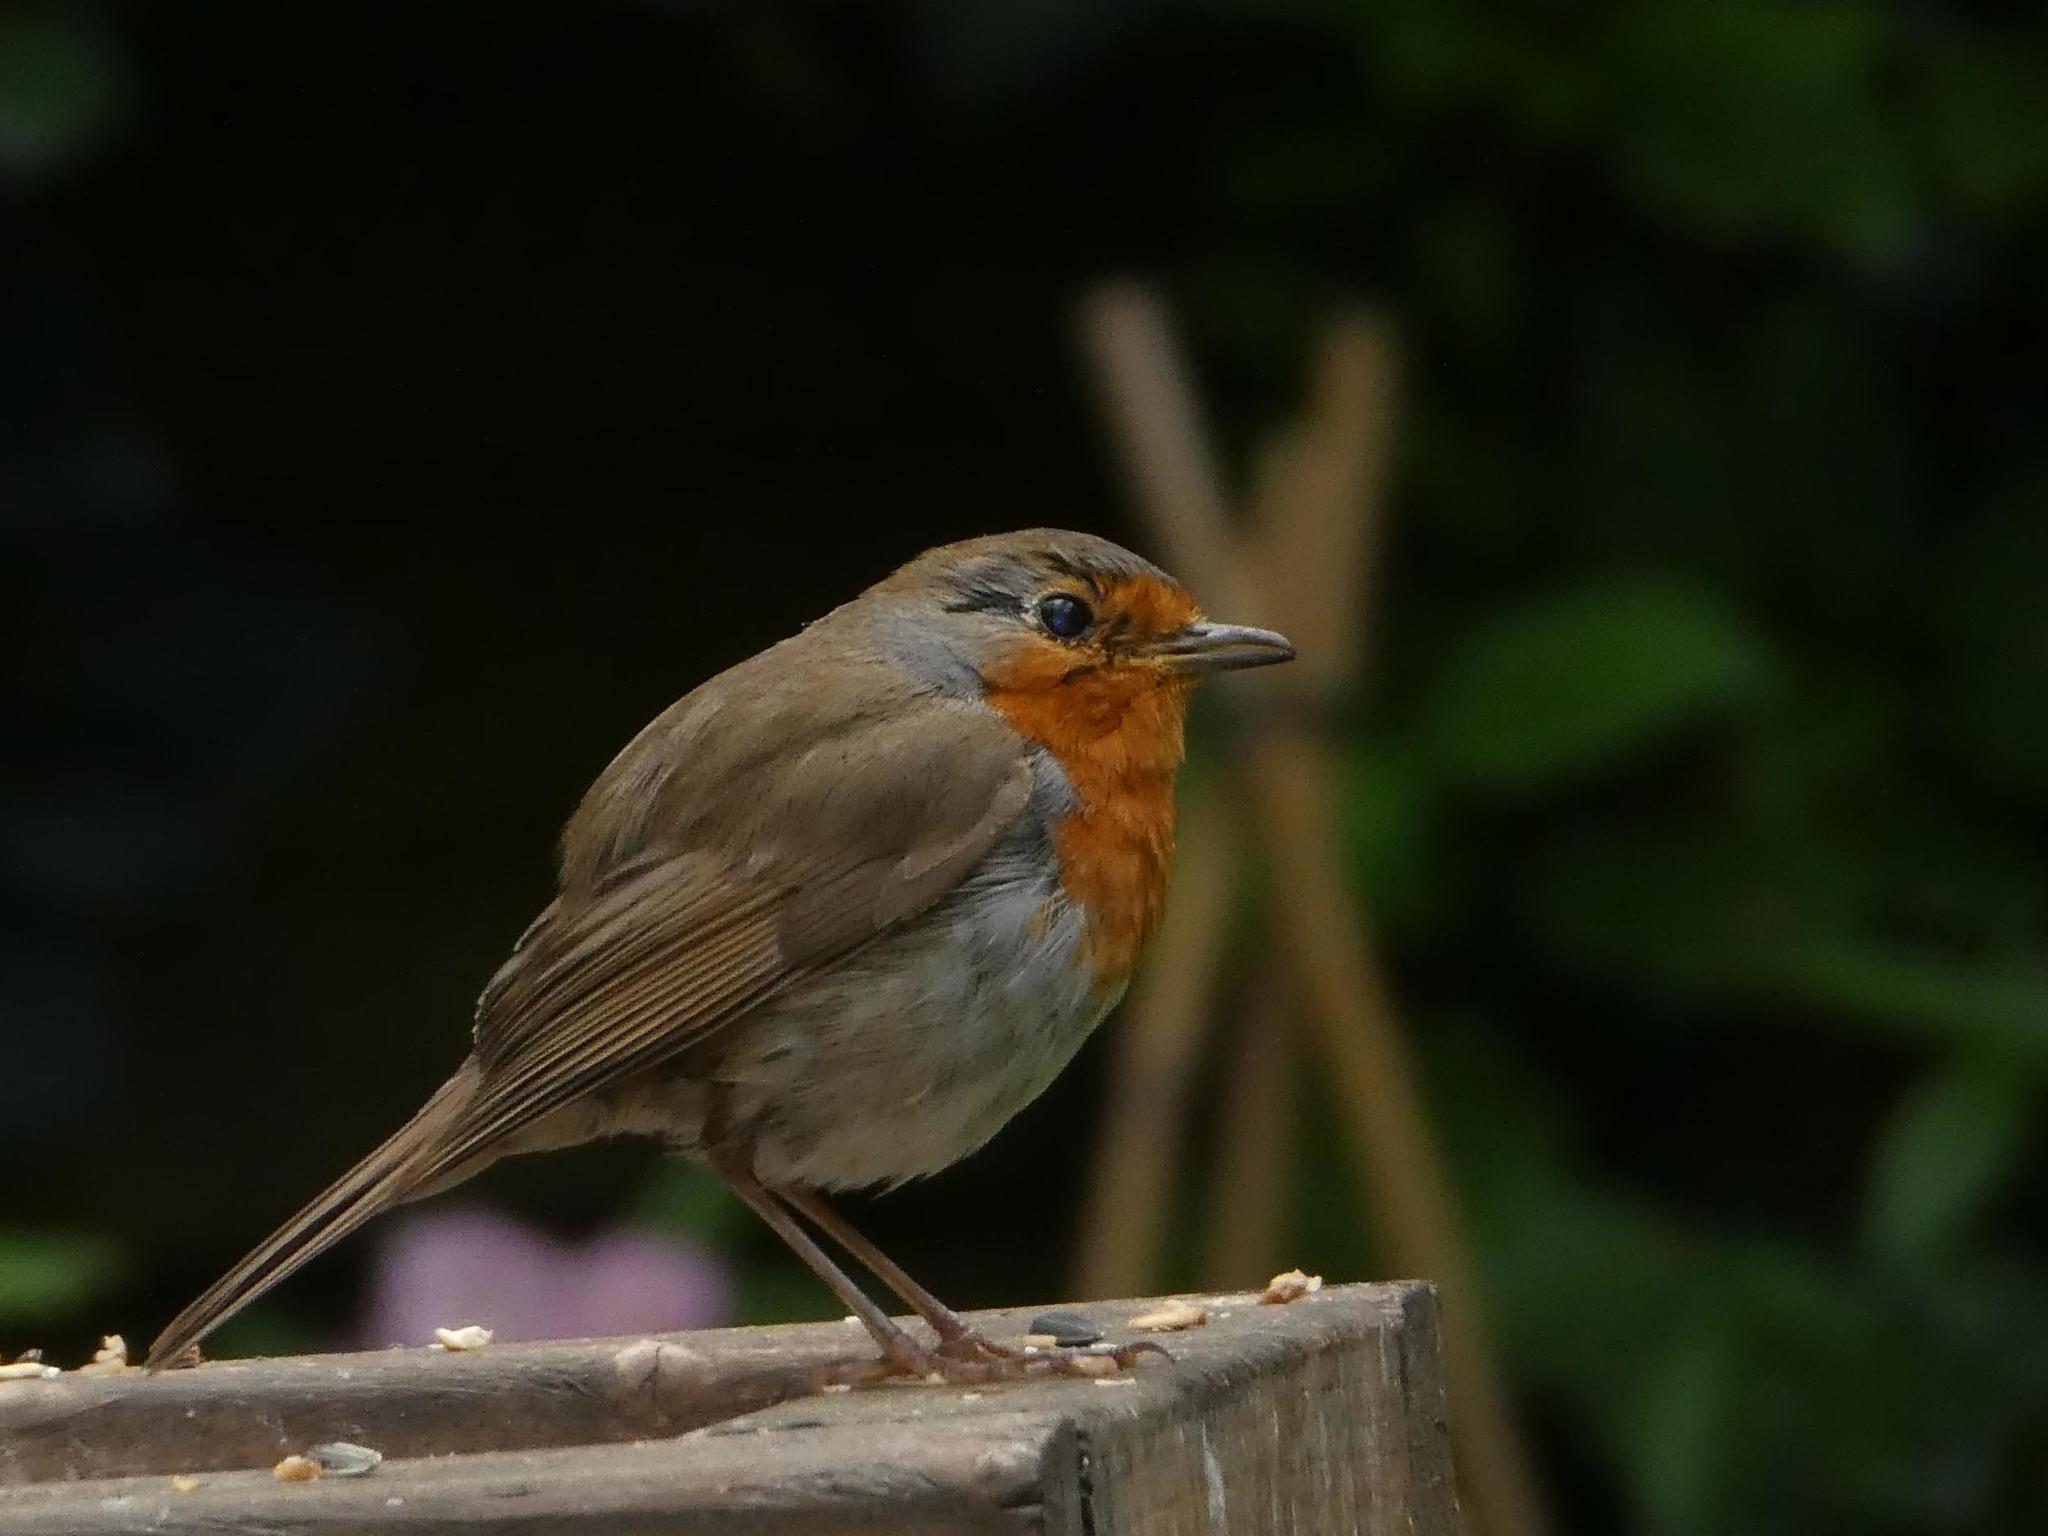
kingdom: Animalia
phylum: Chordata
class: Aves
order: Passeriformes
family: Muscicapidae
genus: Erithacus
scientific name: Erithacus rubecula
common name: European robin
